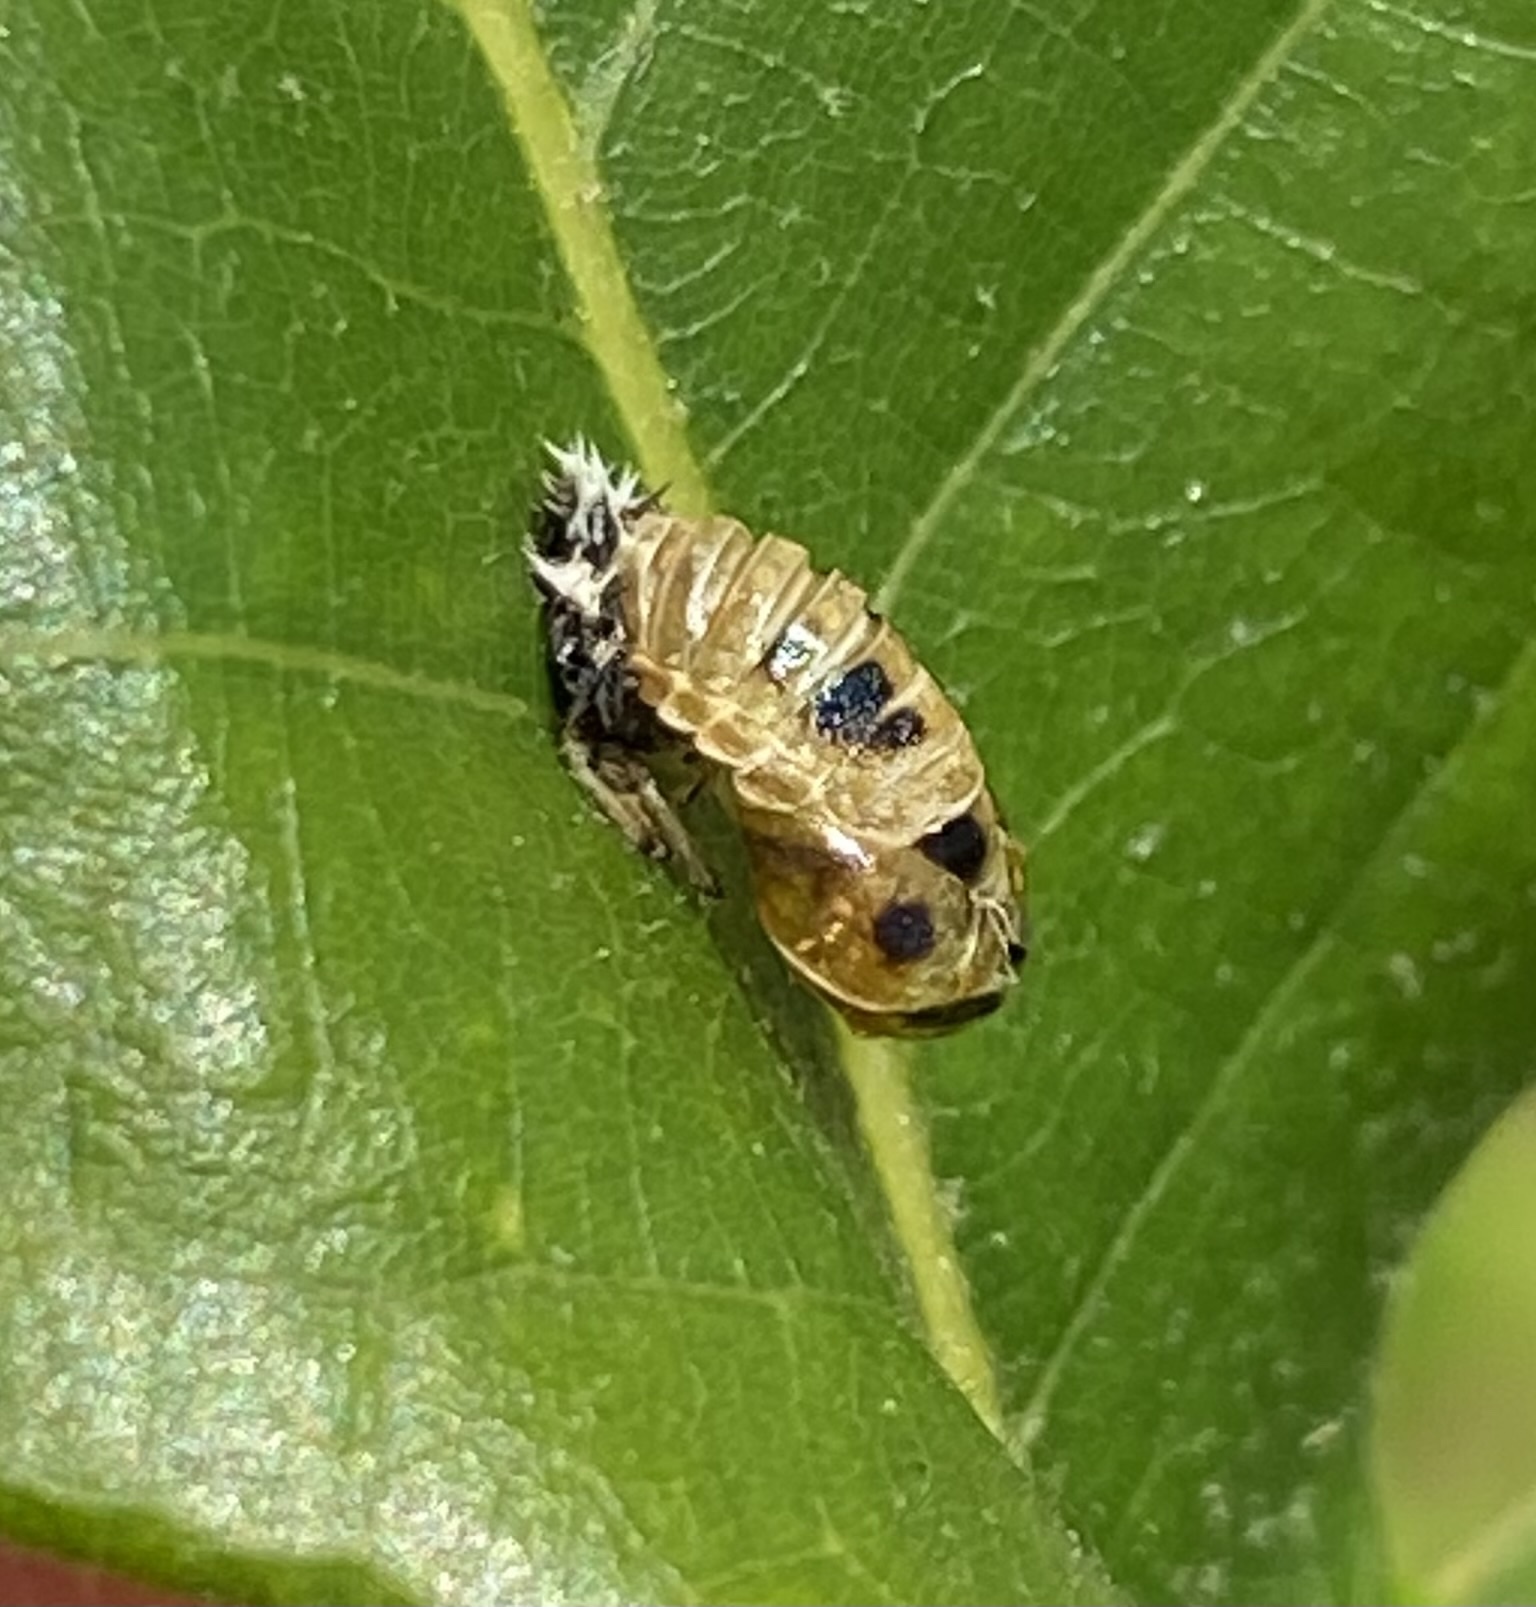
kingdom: Animalia
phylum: Arthropoda
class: Insecta
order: Coleoptera
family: Coccinellidae
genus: Harmonia
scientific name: Harmonia axyridis
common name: Harlequin ladybird
